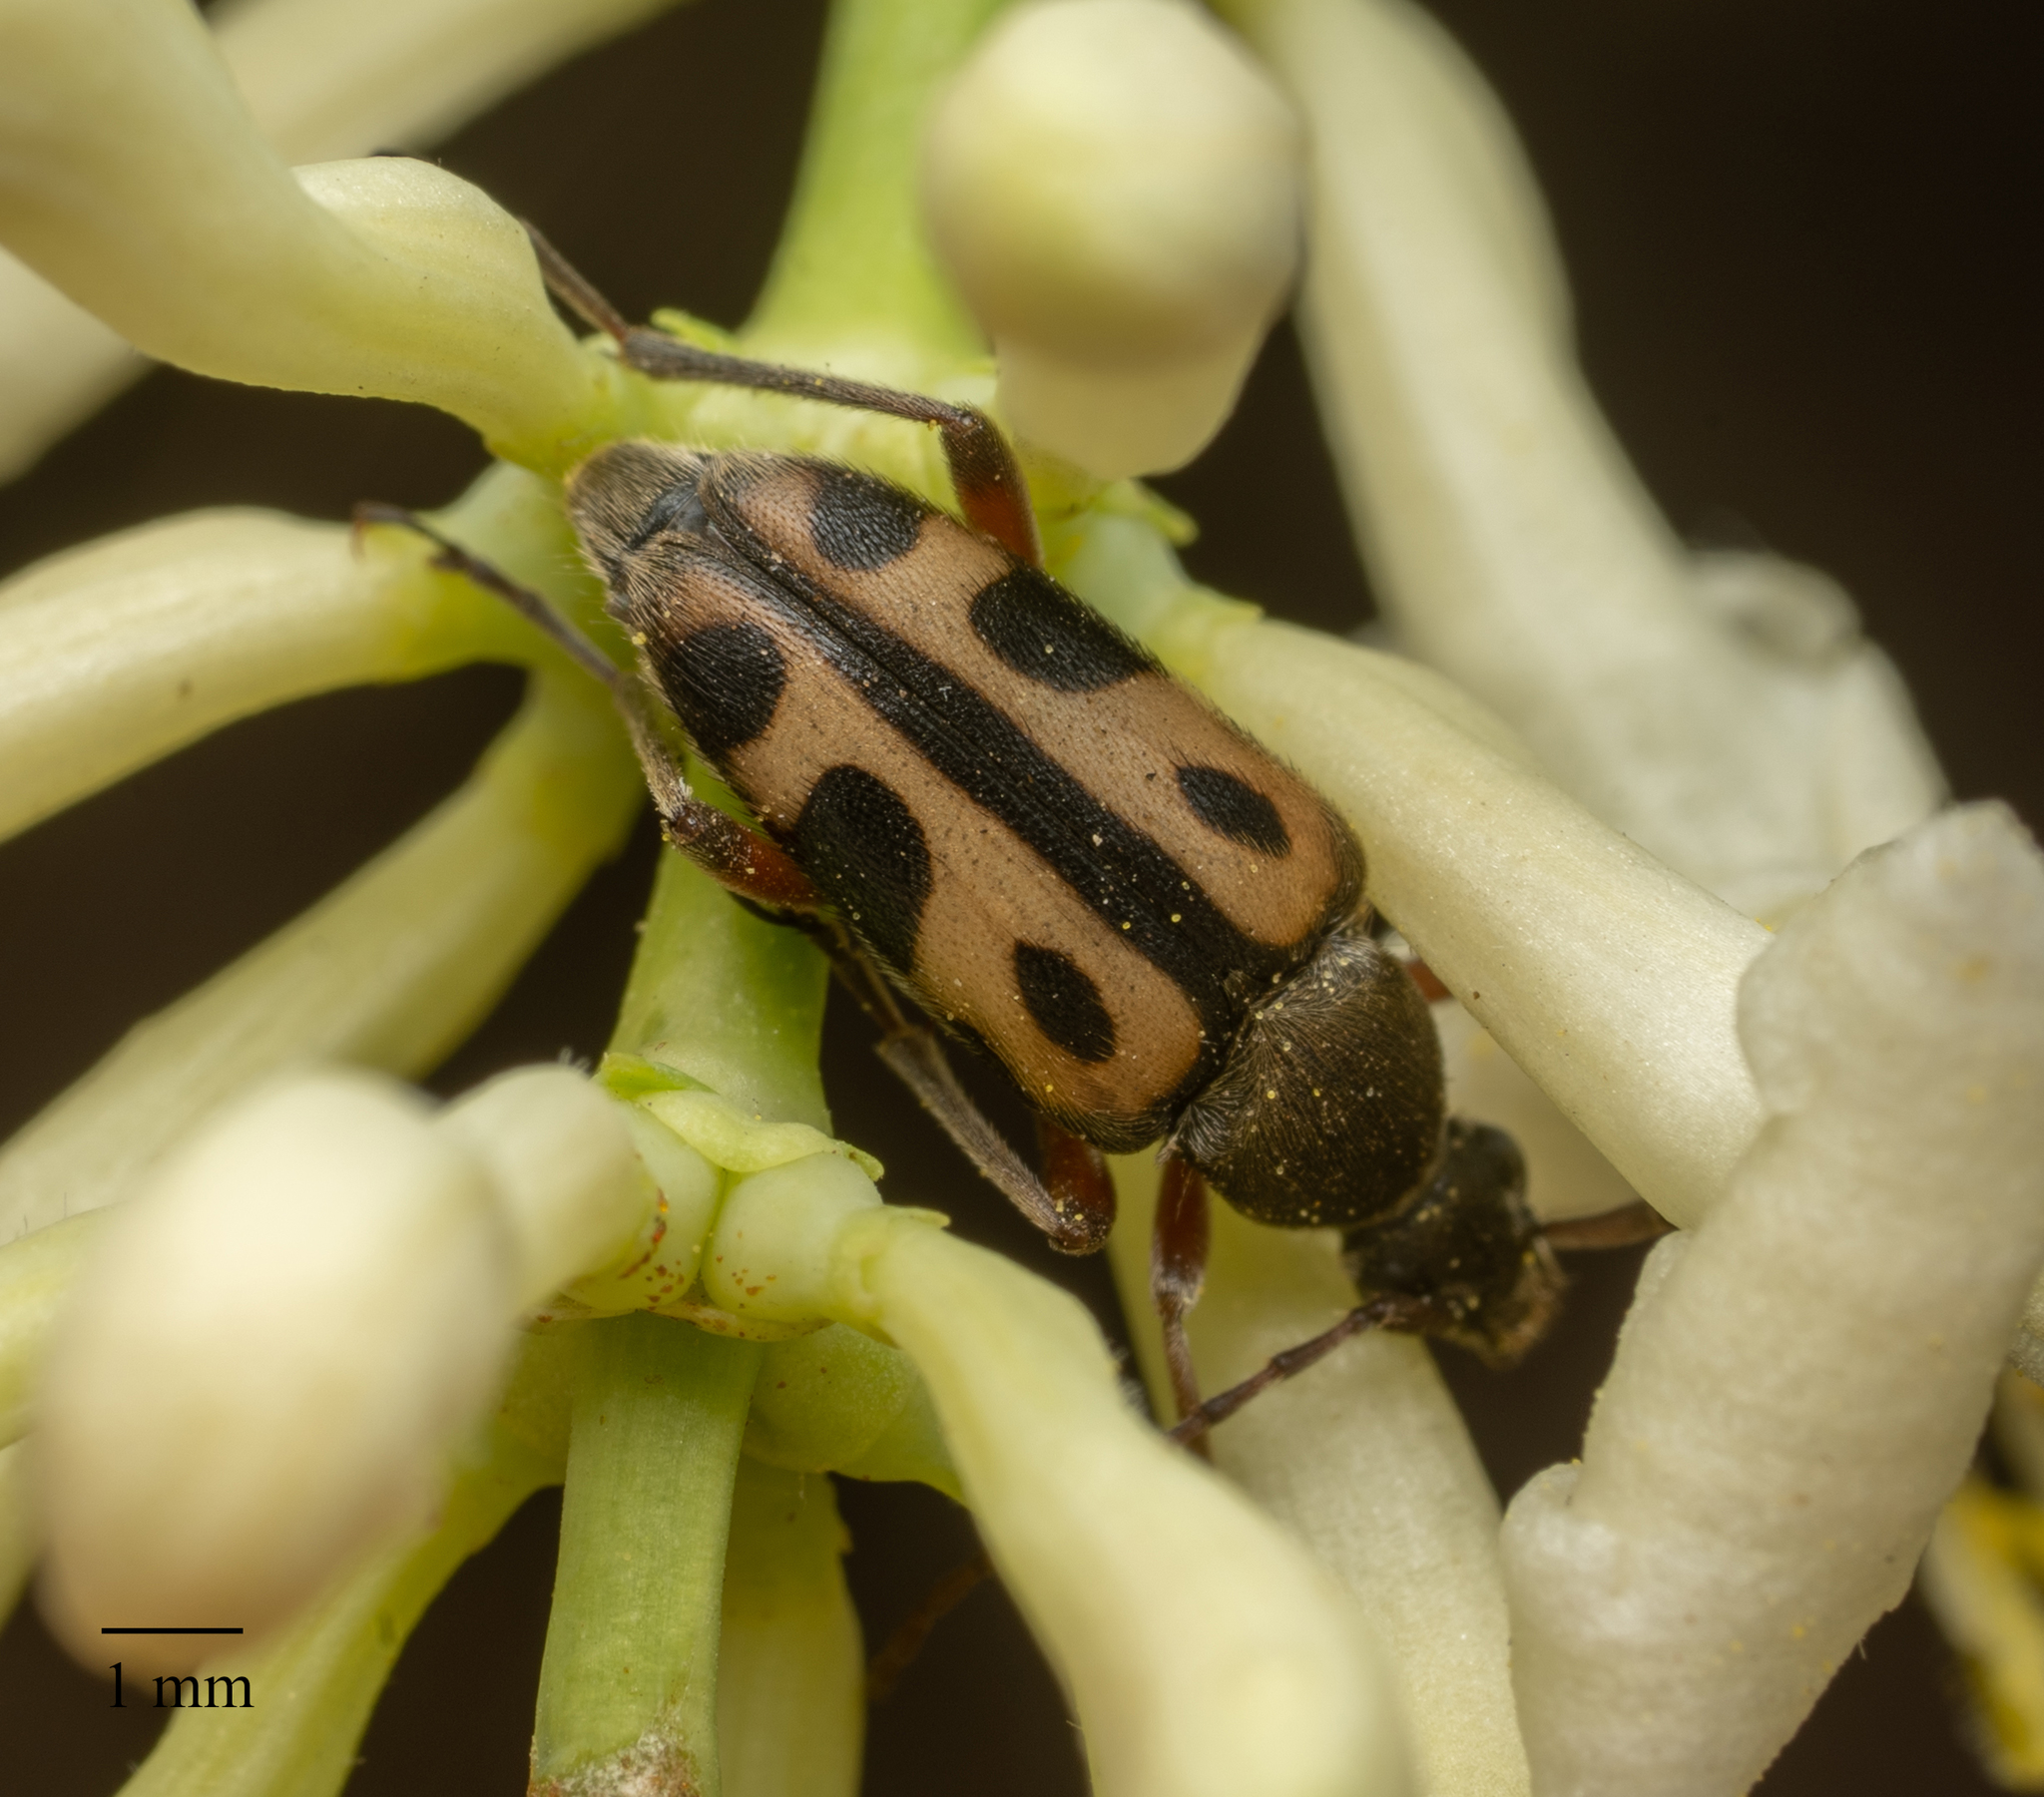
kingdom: Animalia
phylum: Arthropoda
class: Insecta
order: Coleoptera
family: Cerambycidae
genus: Judolia
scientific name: Judolia sexspilota
